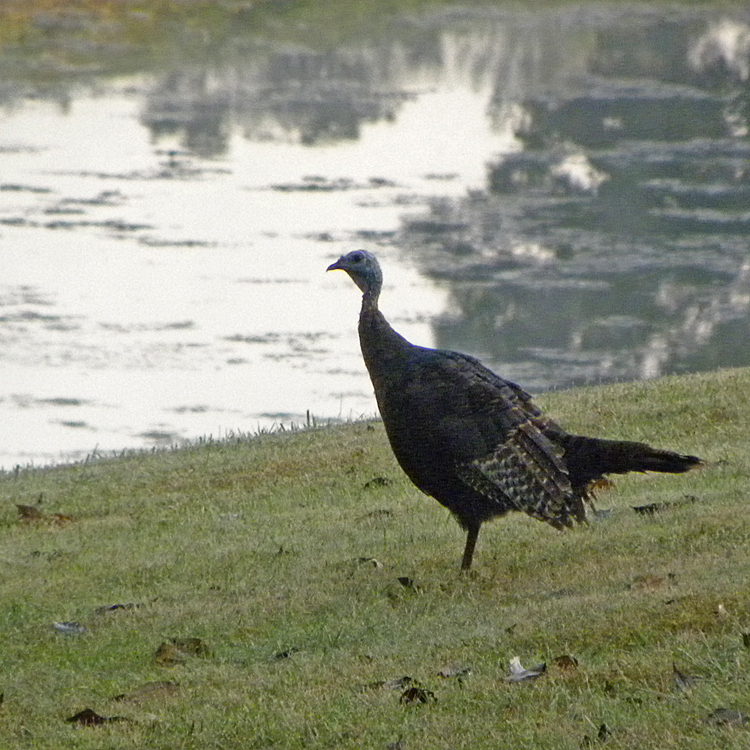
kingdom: Animalia
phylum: Chordata
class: Aves
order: Galliformes
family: Phasianidae
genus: Meleagris
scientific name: Meleagris gallopavo
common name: Wild turkey
